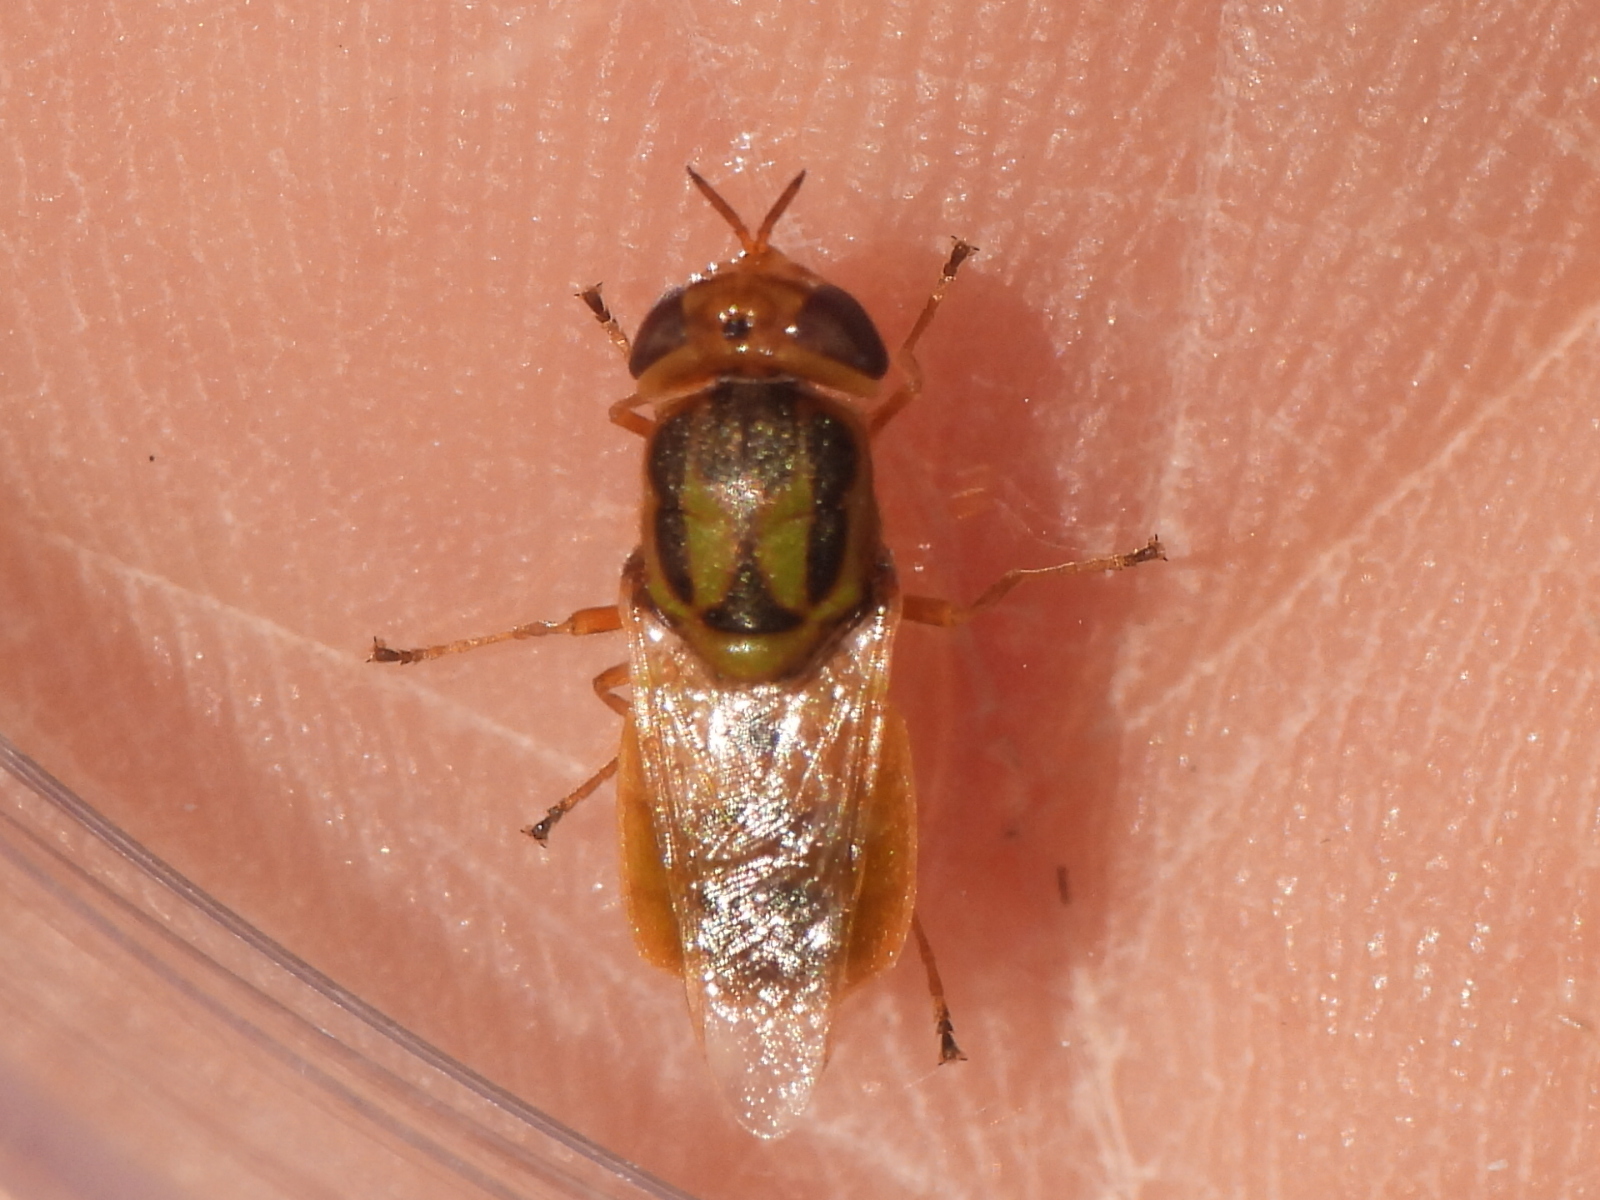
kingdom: Animalia
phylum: Arthropoda
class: Insecta
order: Diptera
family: Stratiomyidae
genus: Hedriodiscus
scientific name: Hedriodiscus trivittatus
